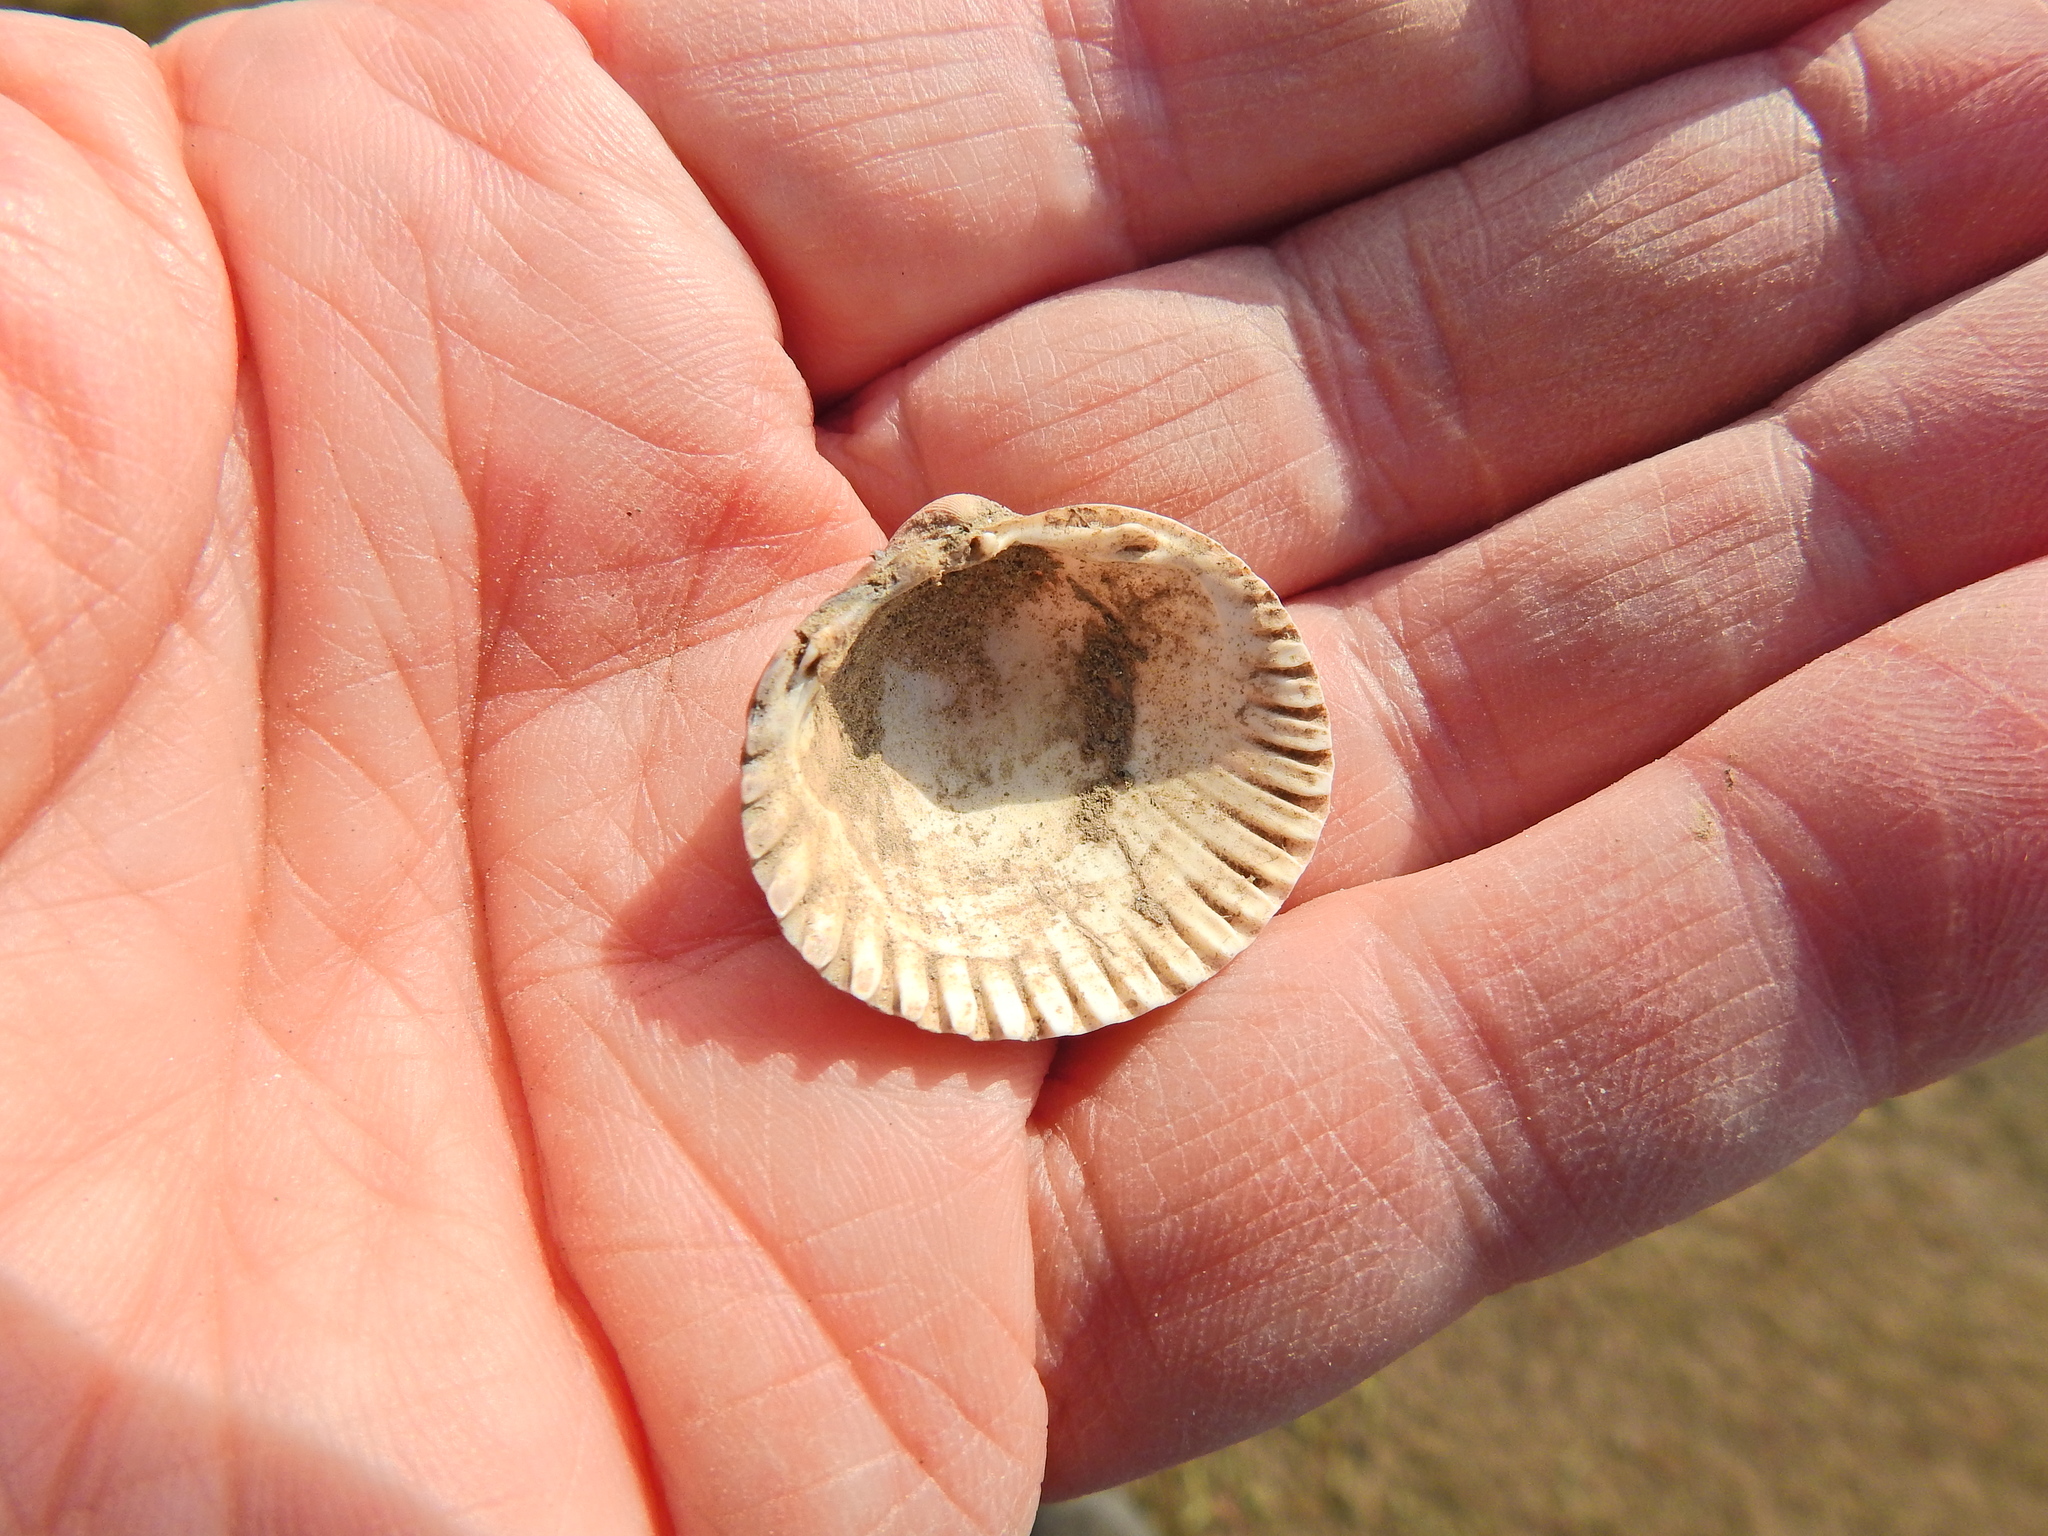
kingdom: Animalia
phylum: Mollusca
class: Bivalvia
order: Cardiida
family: Cardiidae
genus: Cerastoderma
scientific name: Cerastoderma edule
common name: Common cockle
